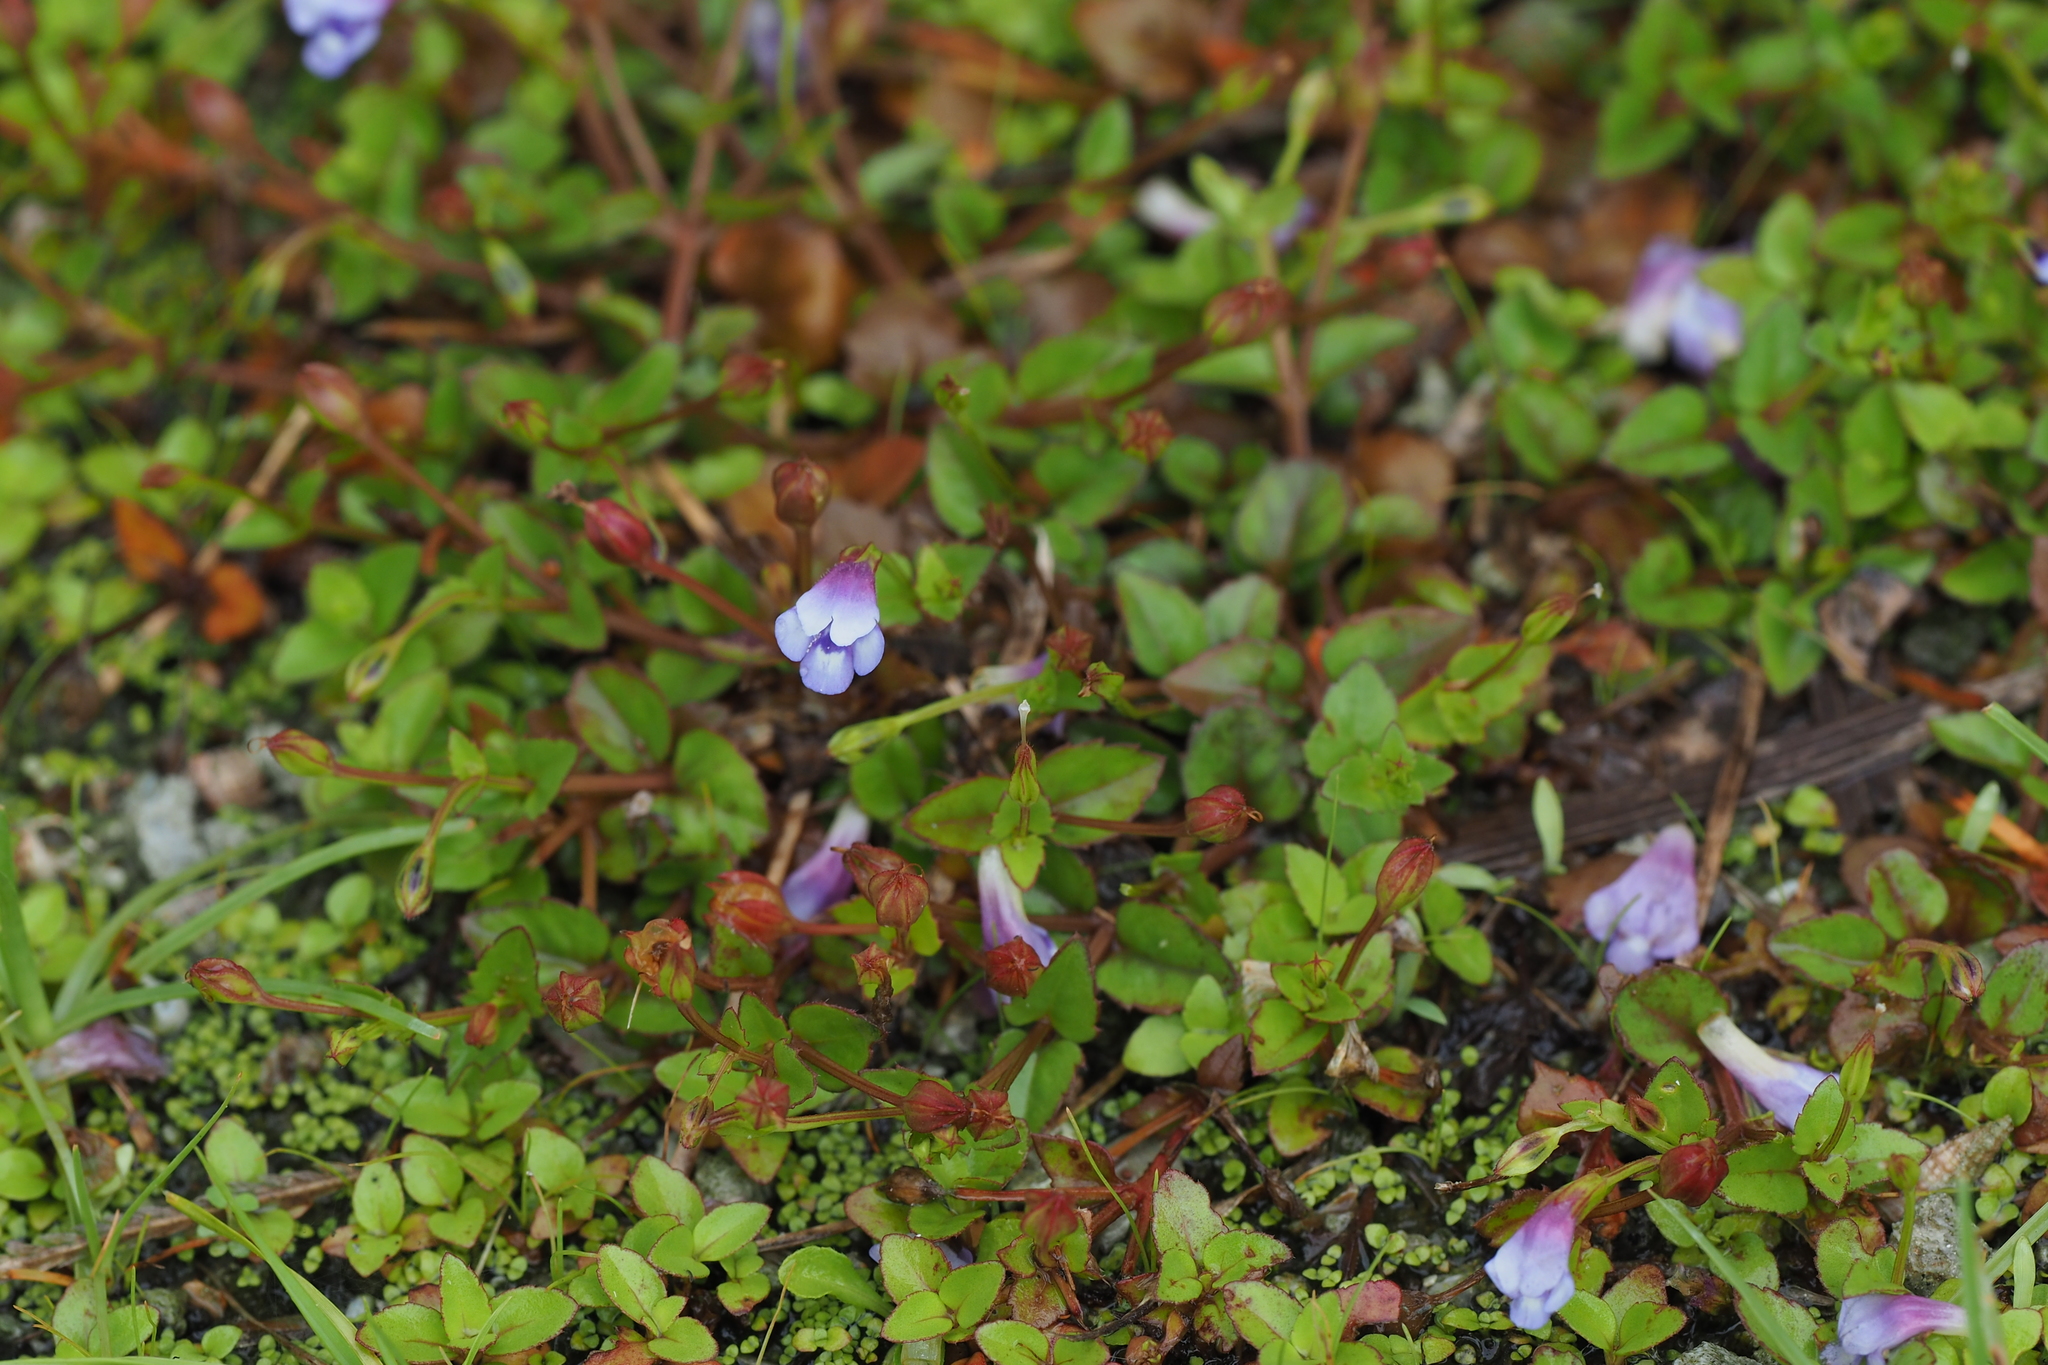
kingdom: Plantae
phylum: Tracheophyta
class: Magnoliopsida
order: Lamiales
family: Linderniaceae
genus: Torenia
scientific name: Torenia crustacea
